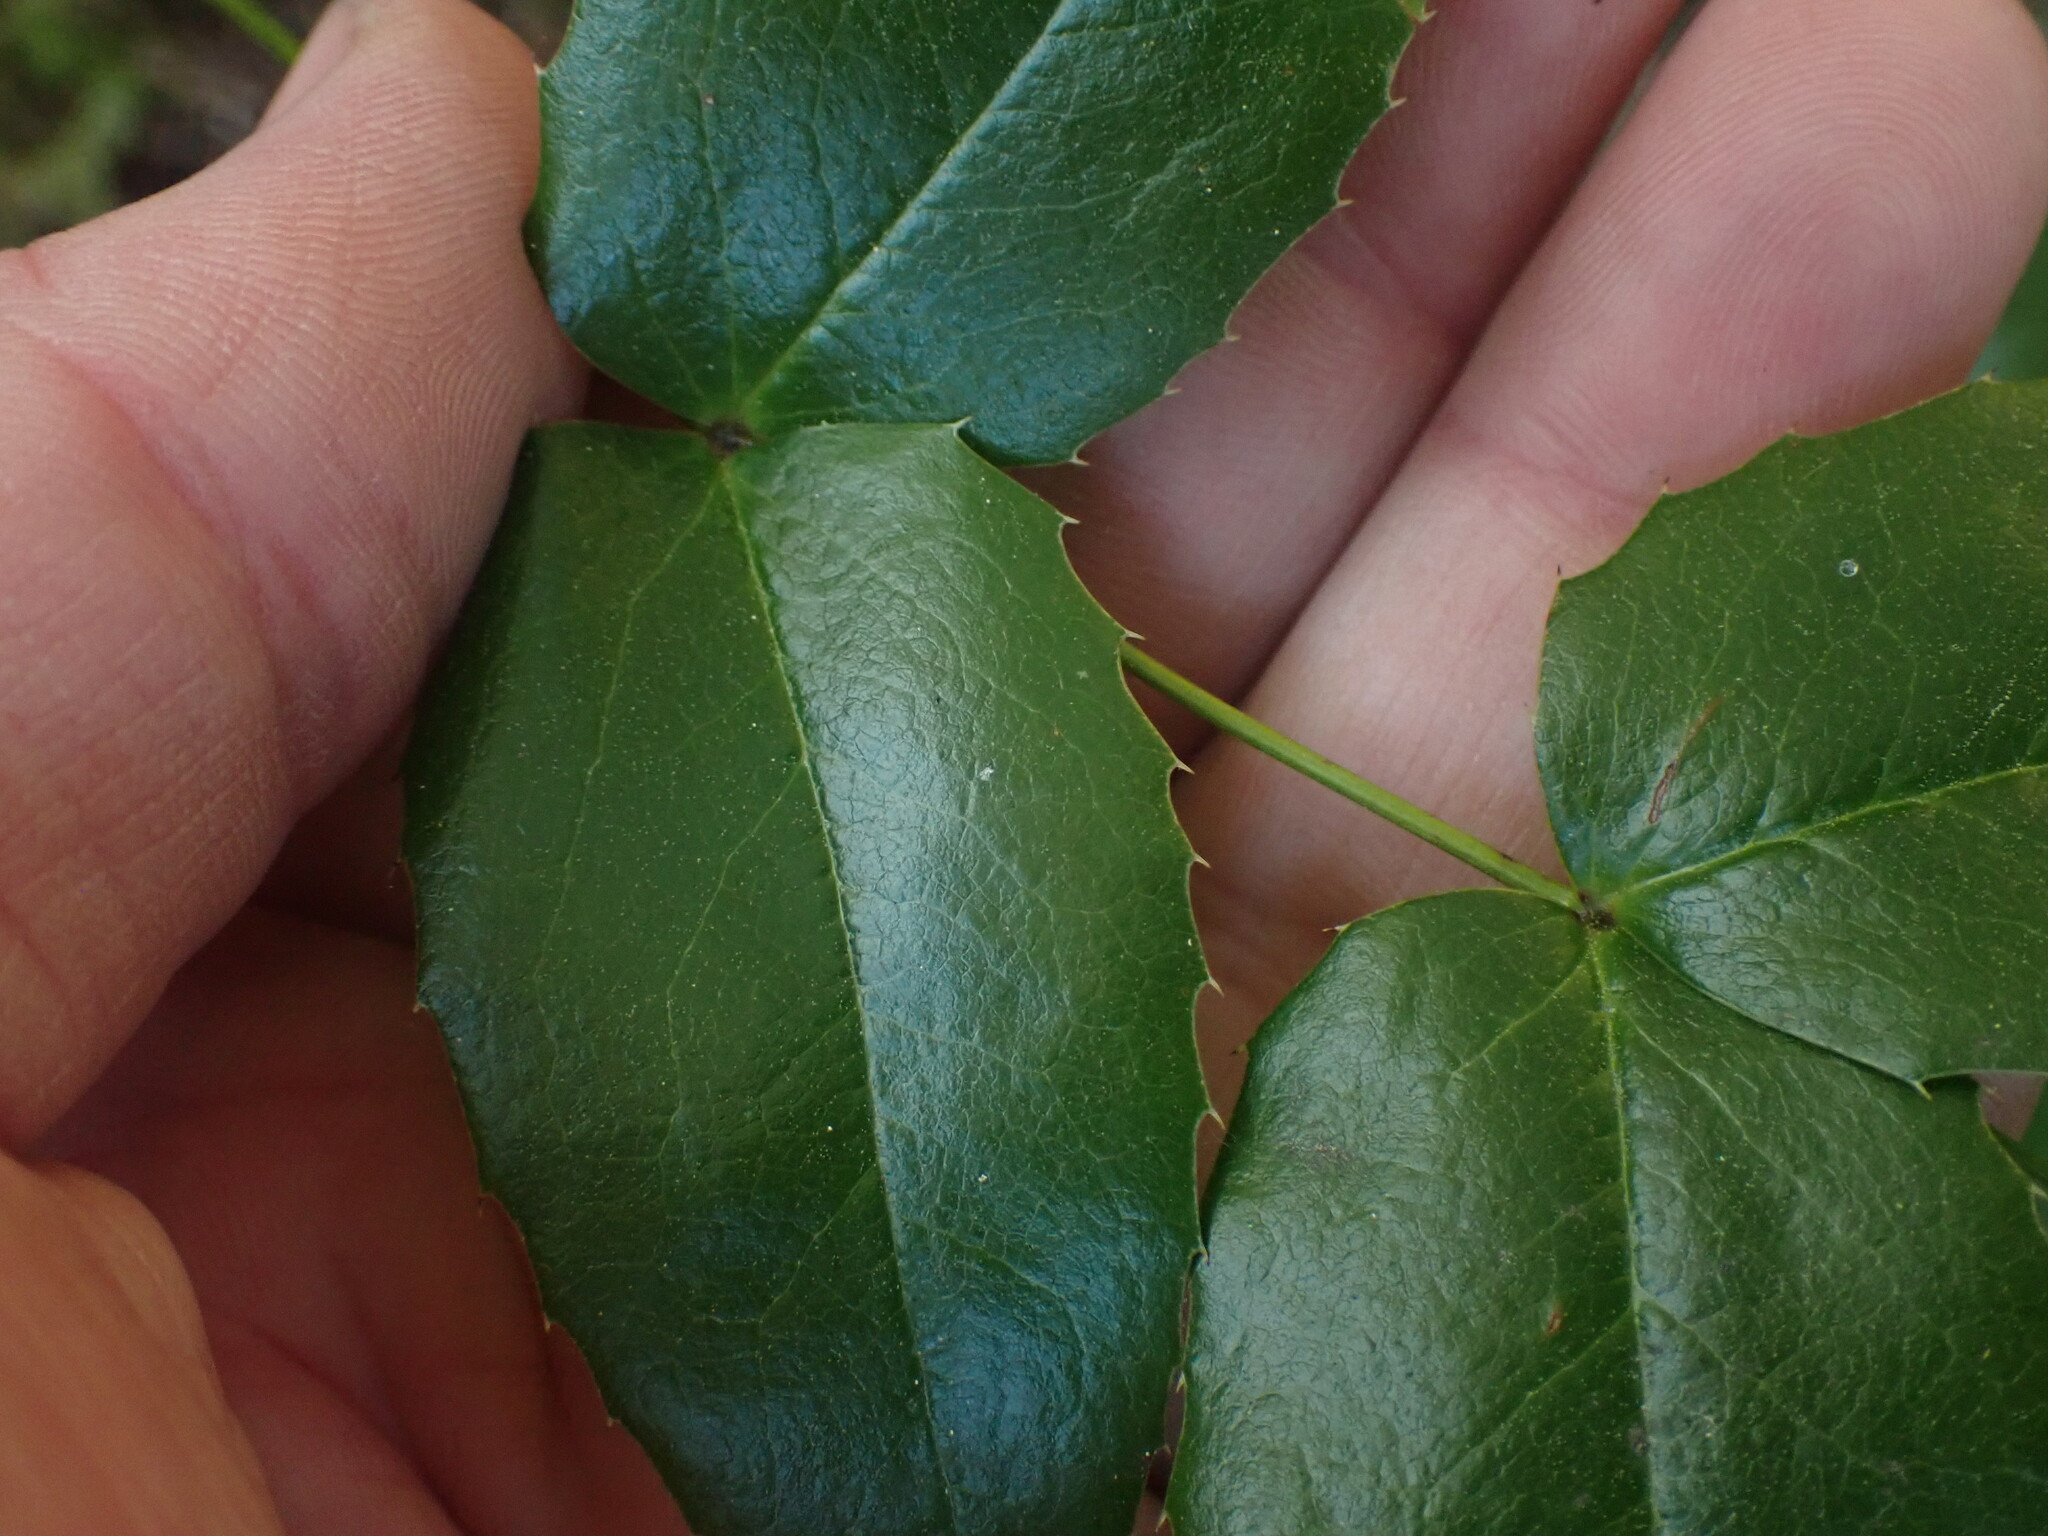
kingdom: Plantae
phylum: Tracheophyta
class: Magnoliopsida
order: Ranunculales
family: Berberidaceae
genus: Mahonia
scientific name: Mahonia aquifolium
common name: Oregon-grape
